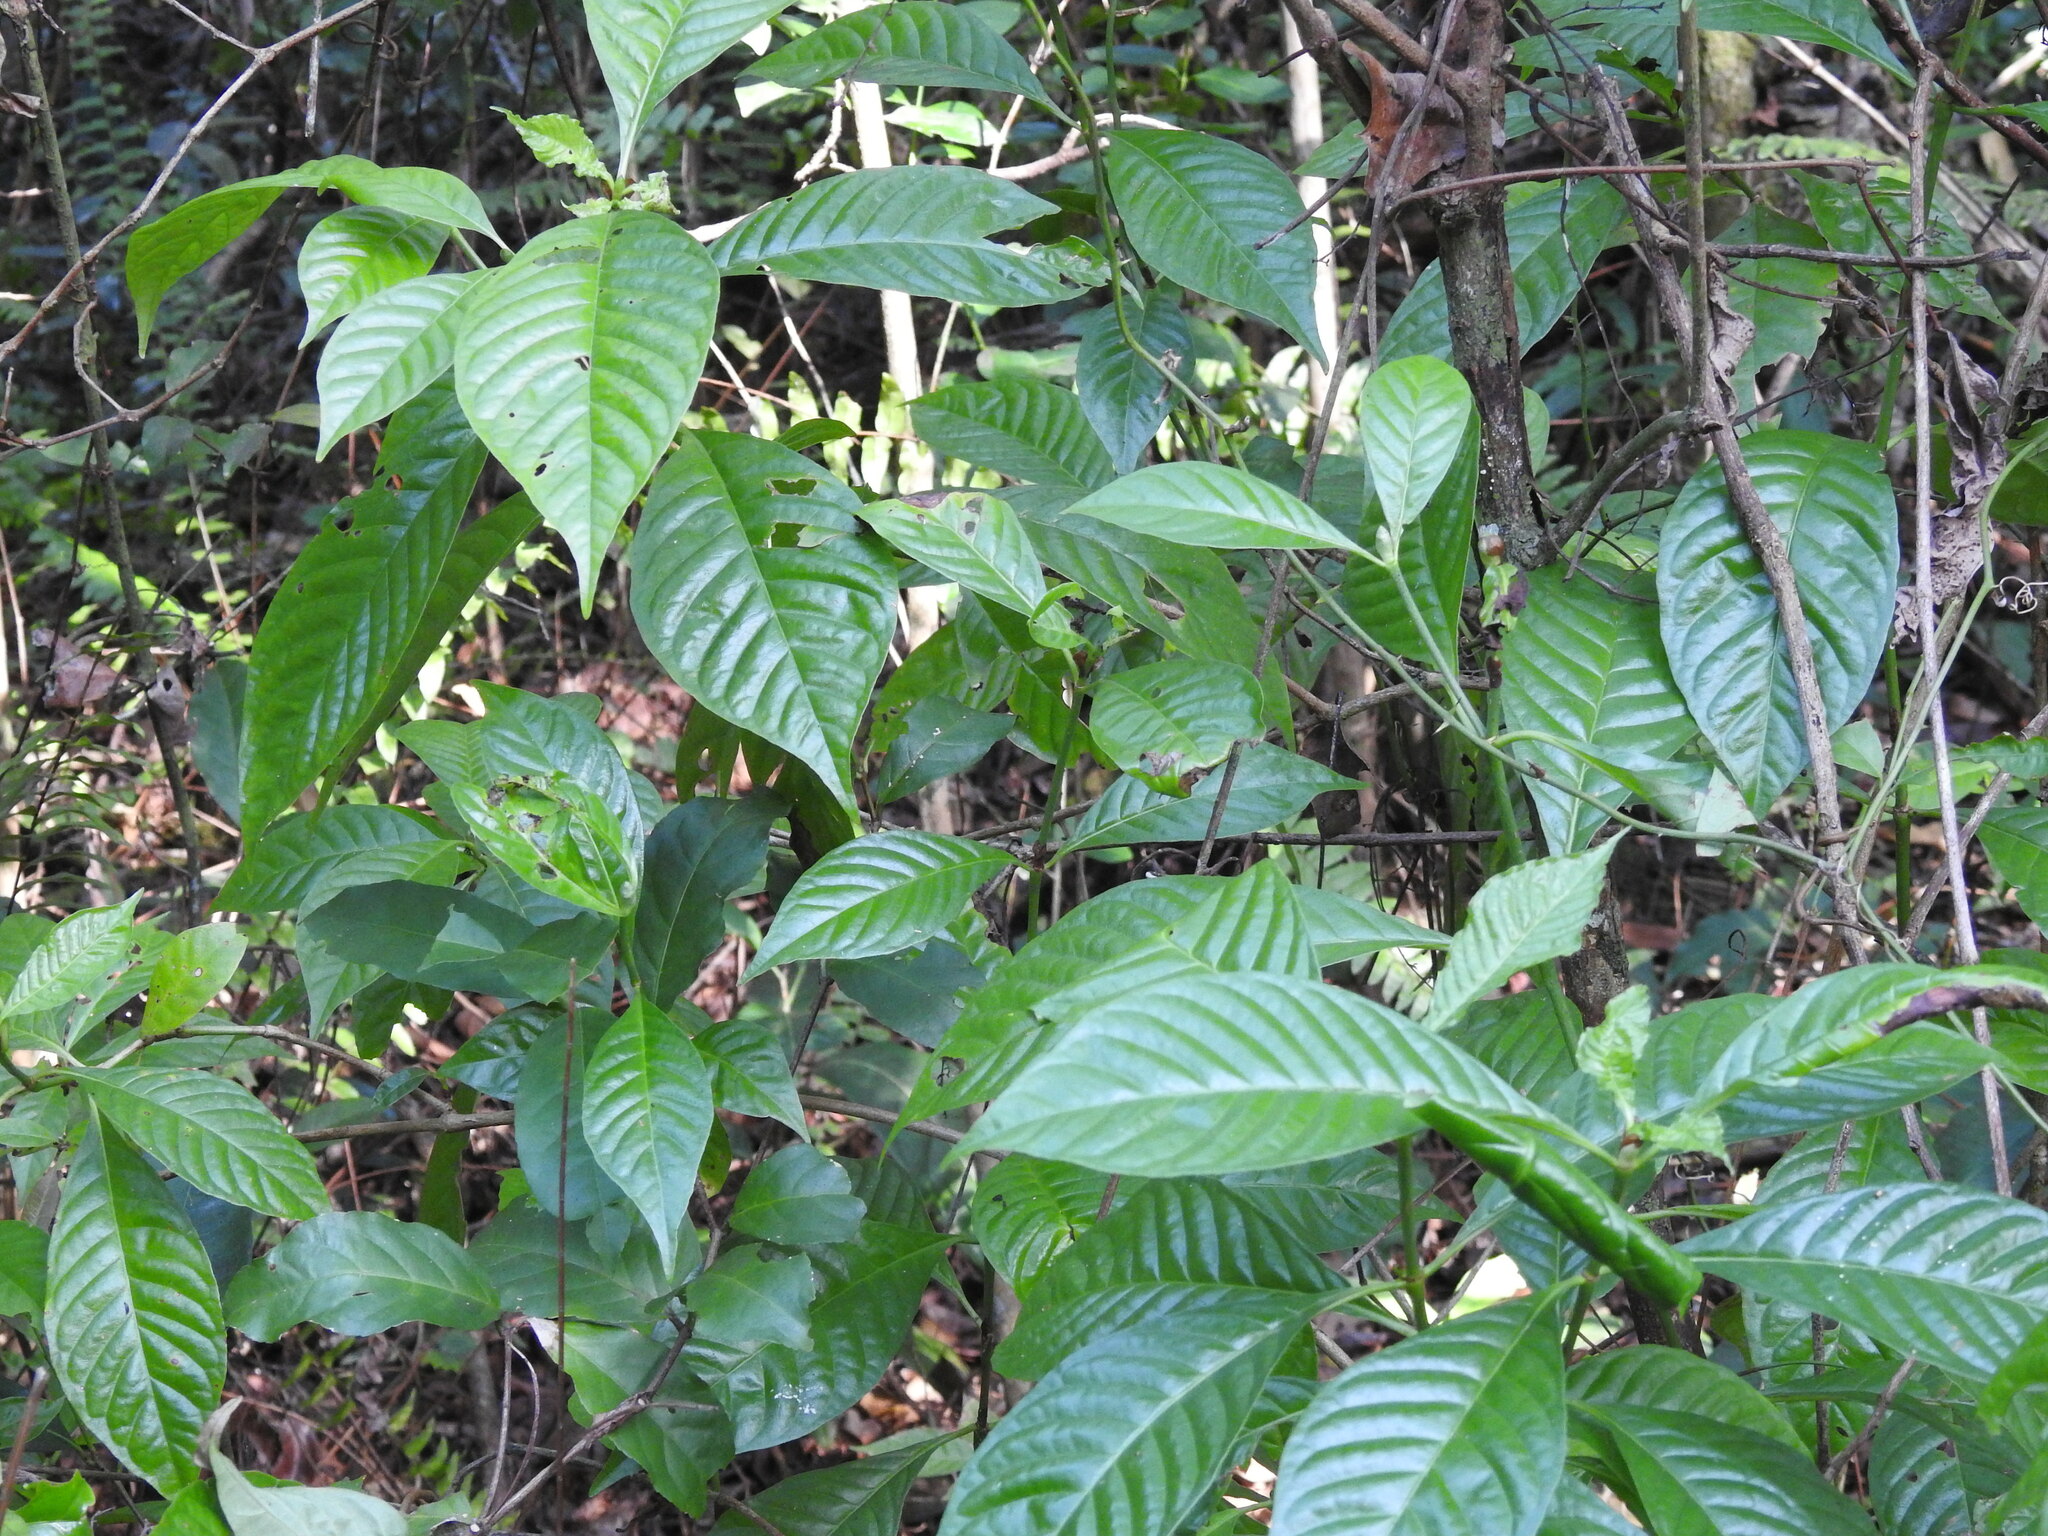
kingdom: Plantae
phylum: Tracheophyta
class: Magnoliopsida
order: Gentianales
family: Rubiaceae
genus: Psychotria
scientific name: Psychotria nervosa
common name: Bastard cankerberry
